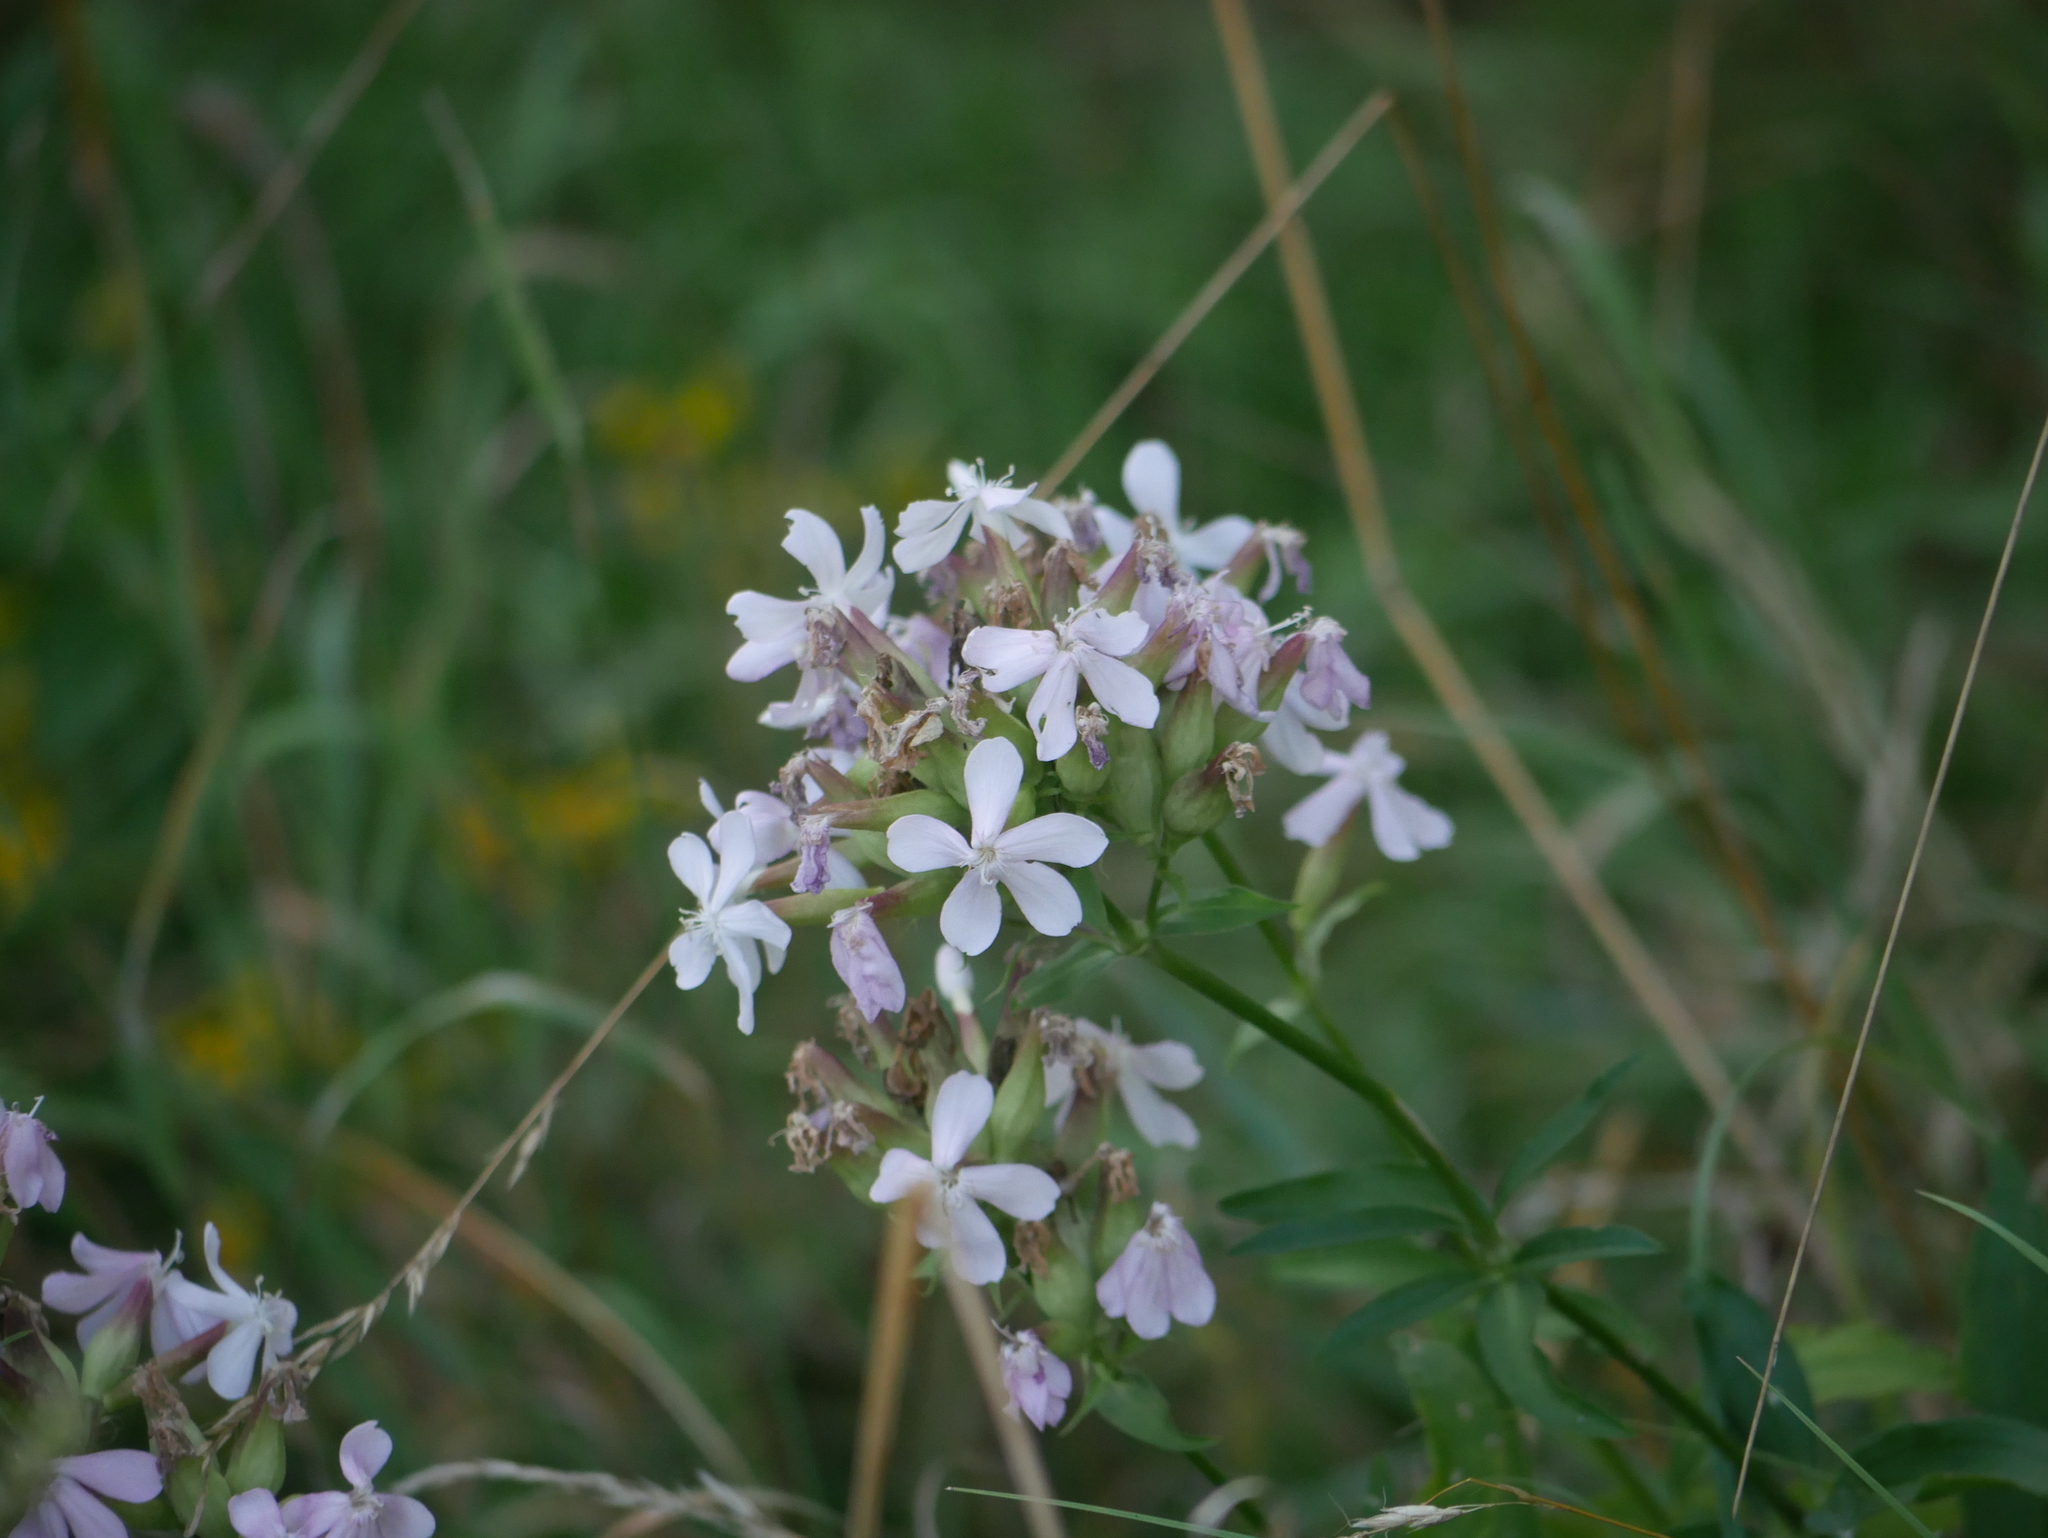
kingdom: Plantae
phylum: Tracheophyta
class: Magnoliopsida
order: Caryophyllales
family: Caryophyllaceae
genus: Saponaria
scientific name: Saponaria officinalis
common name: Soapwort
